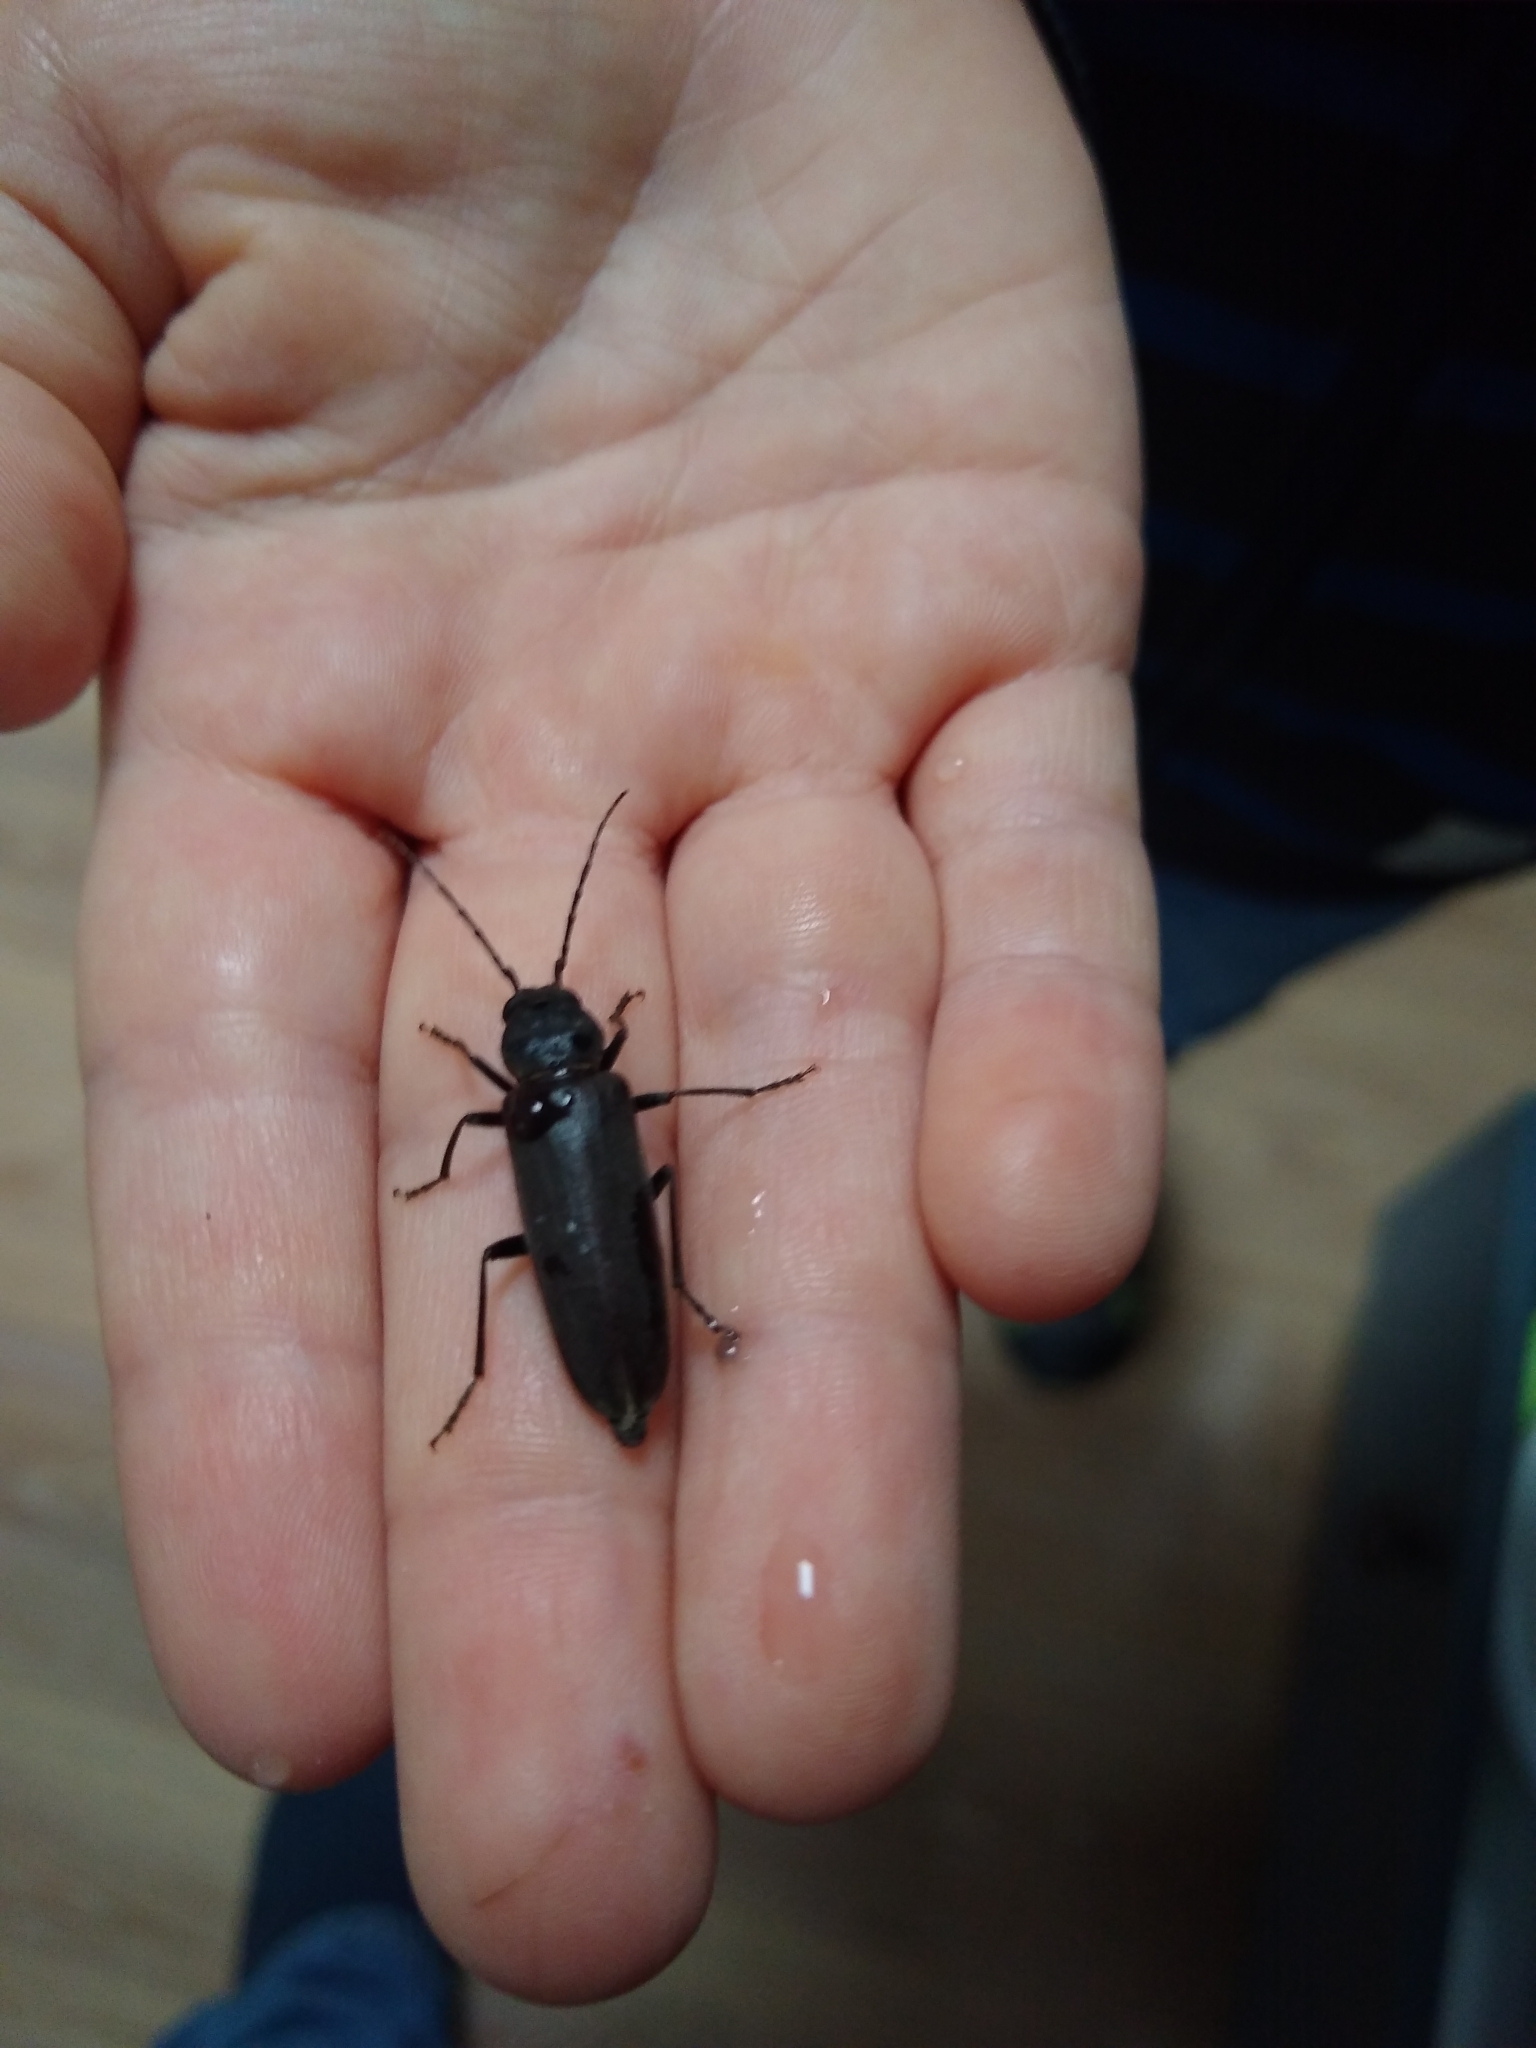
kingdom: Animalia
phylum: Arthropoda
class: Insecta
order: Coleoptera
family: Cerambycidae
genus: Arhopalus
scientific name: Arhopalus ferus
